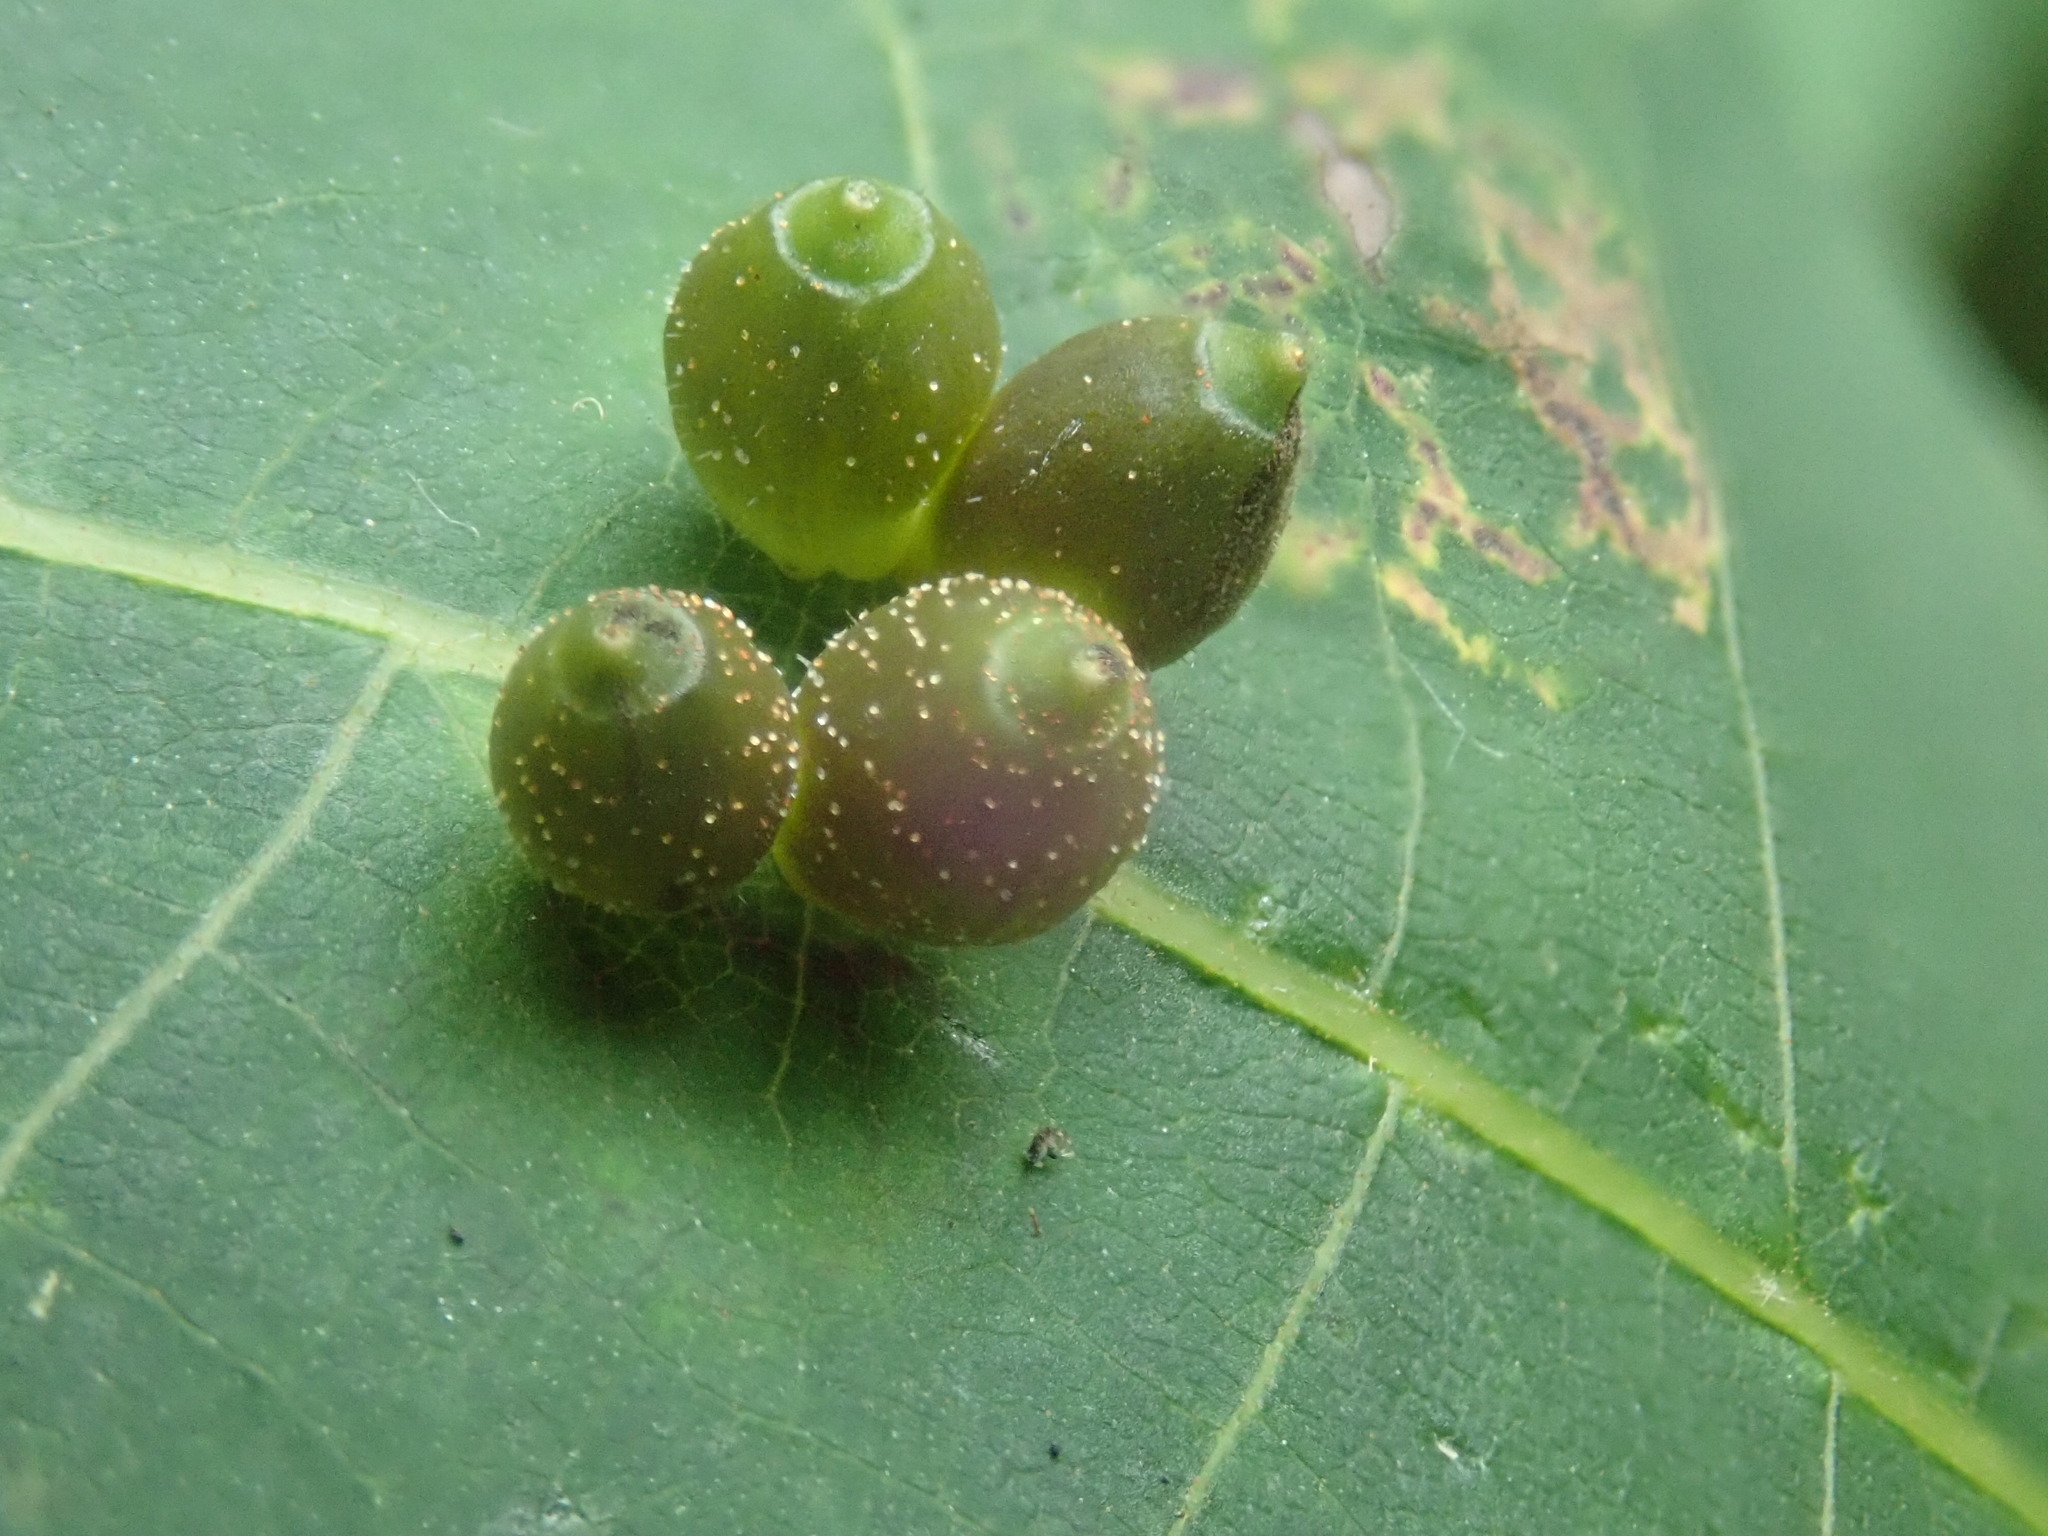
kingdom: Animalia
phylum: Arthropoda
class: Insecta
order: Diptera
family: Cecidomyiidae
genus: Caryomyia
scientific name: Caryomyia viscidolium
